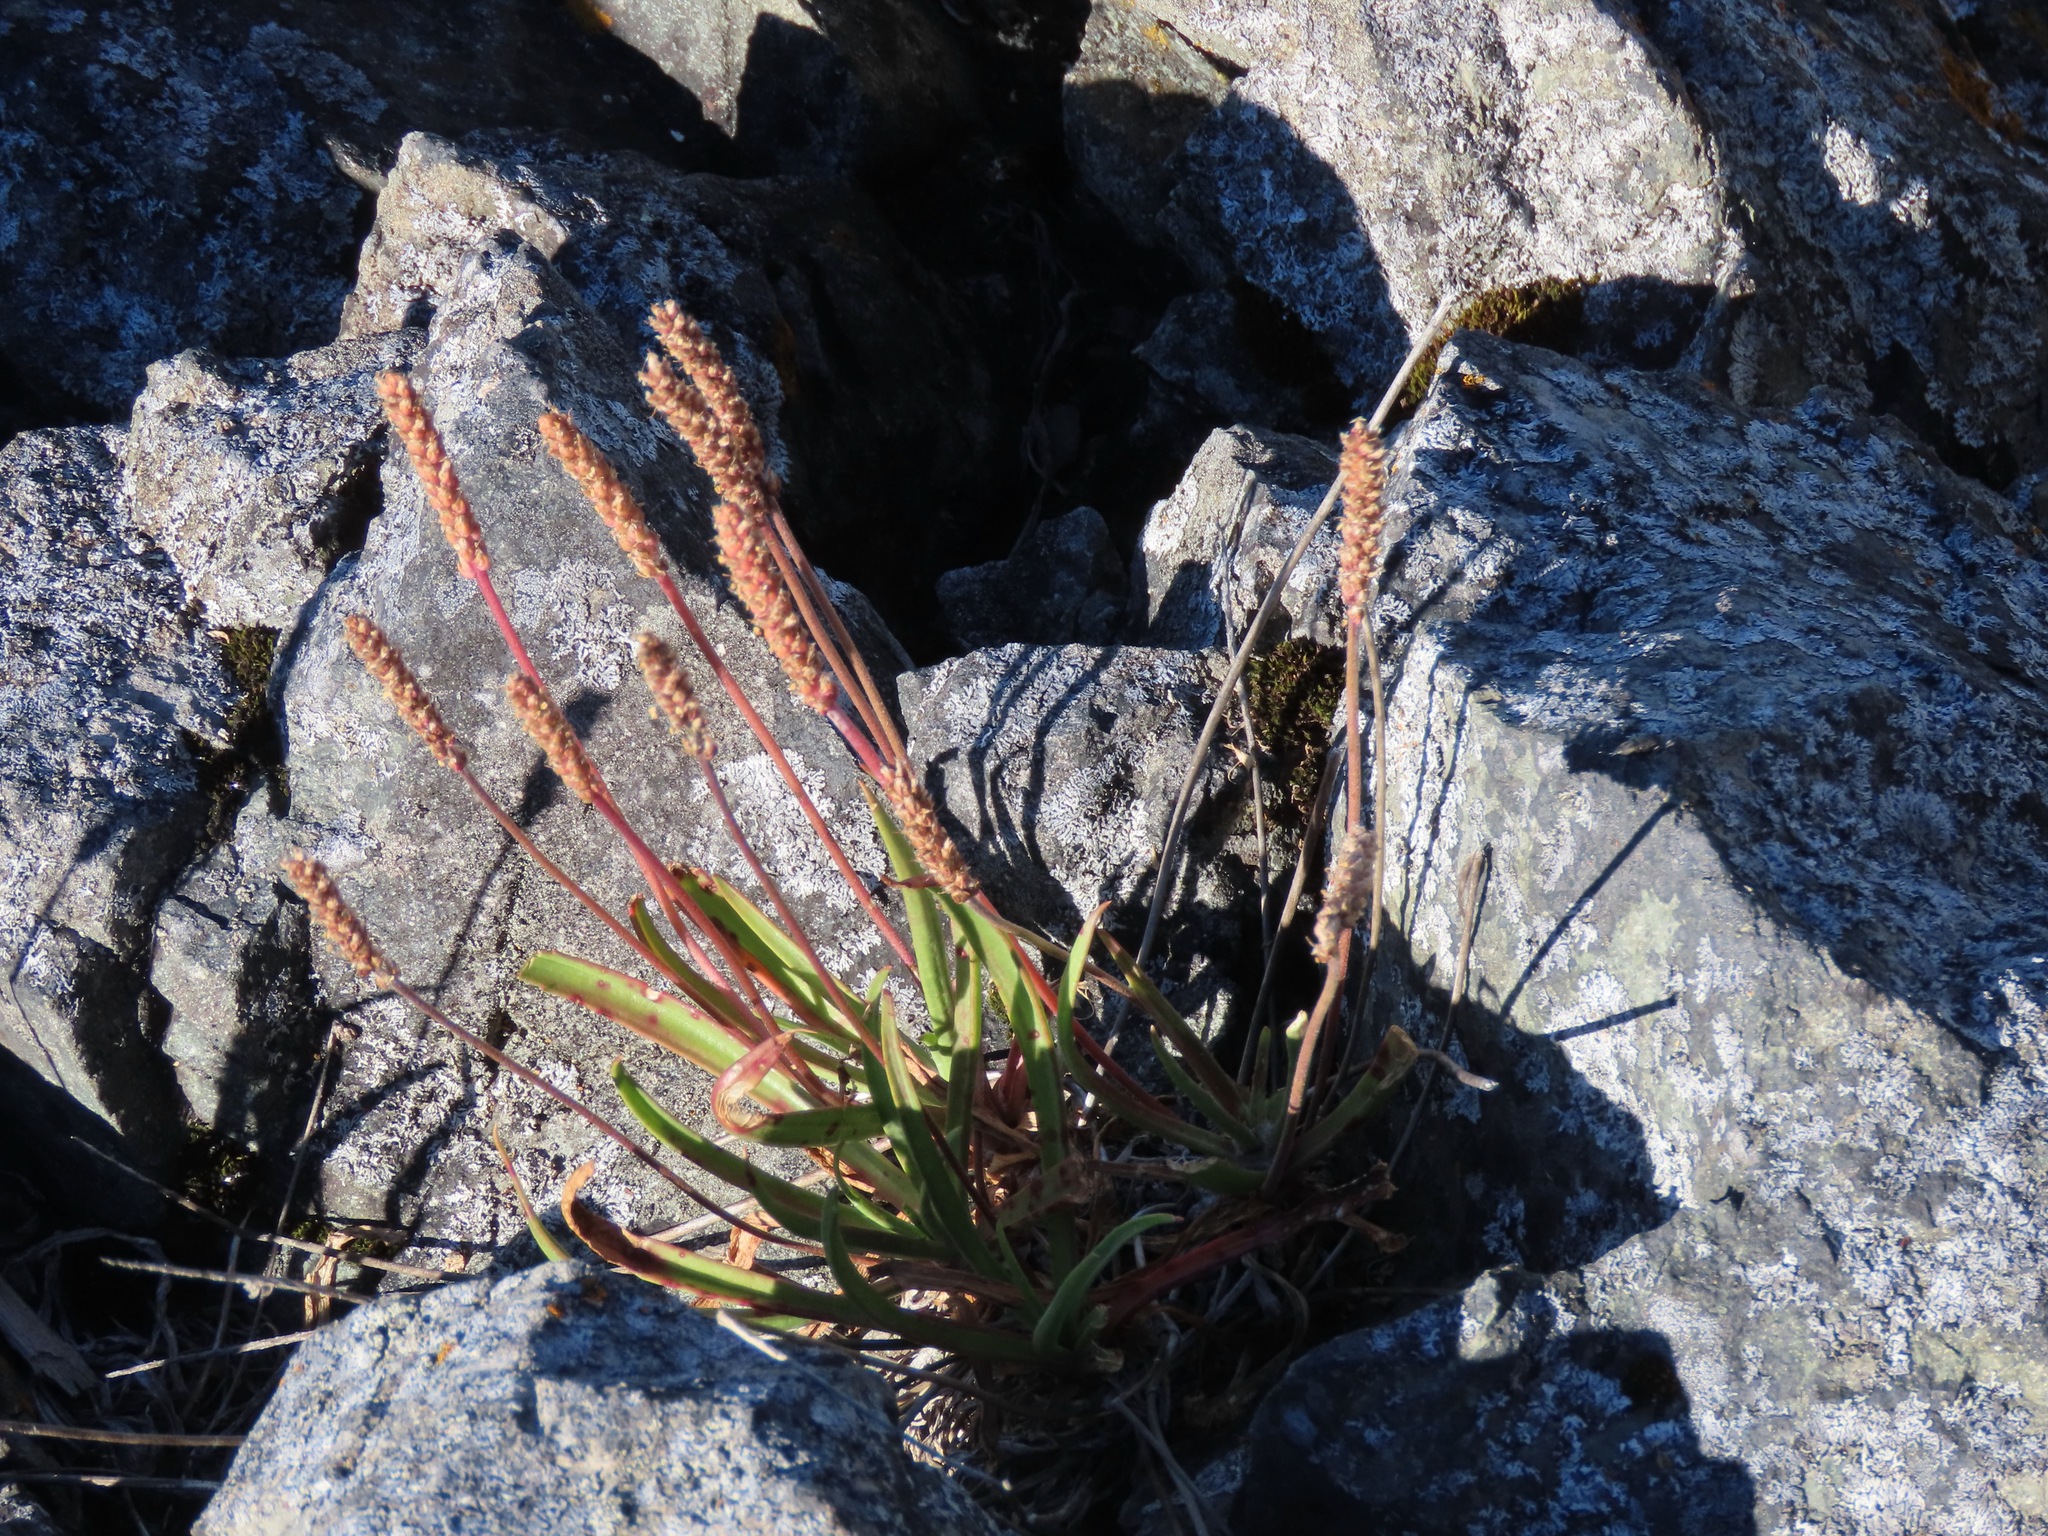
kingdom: Plantae
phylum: Tracheophyta
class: Magnoliopsida
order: Lamiales
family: Plantaginaceae
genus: Plantago
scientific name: Plantago maritima
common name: Sea plantain
